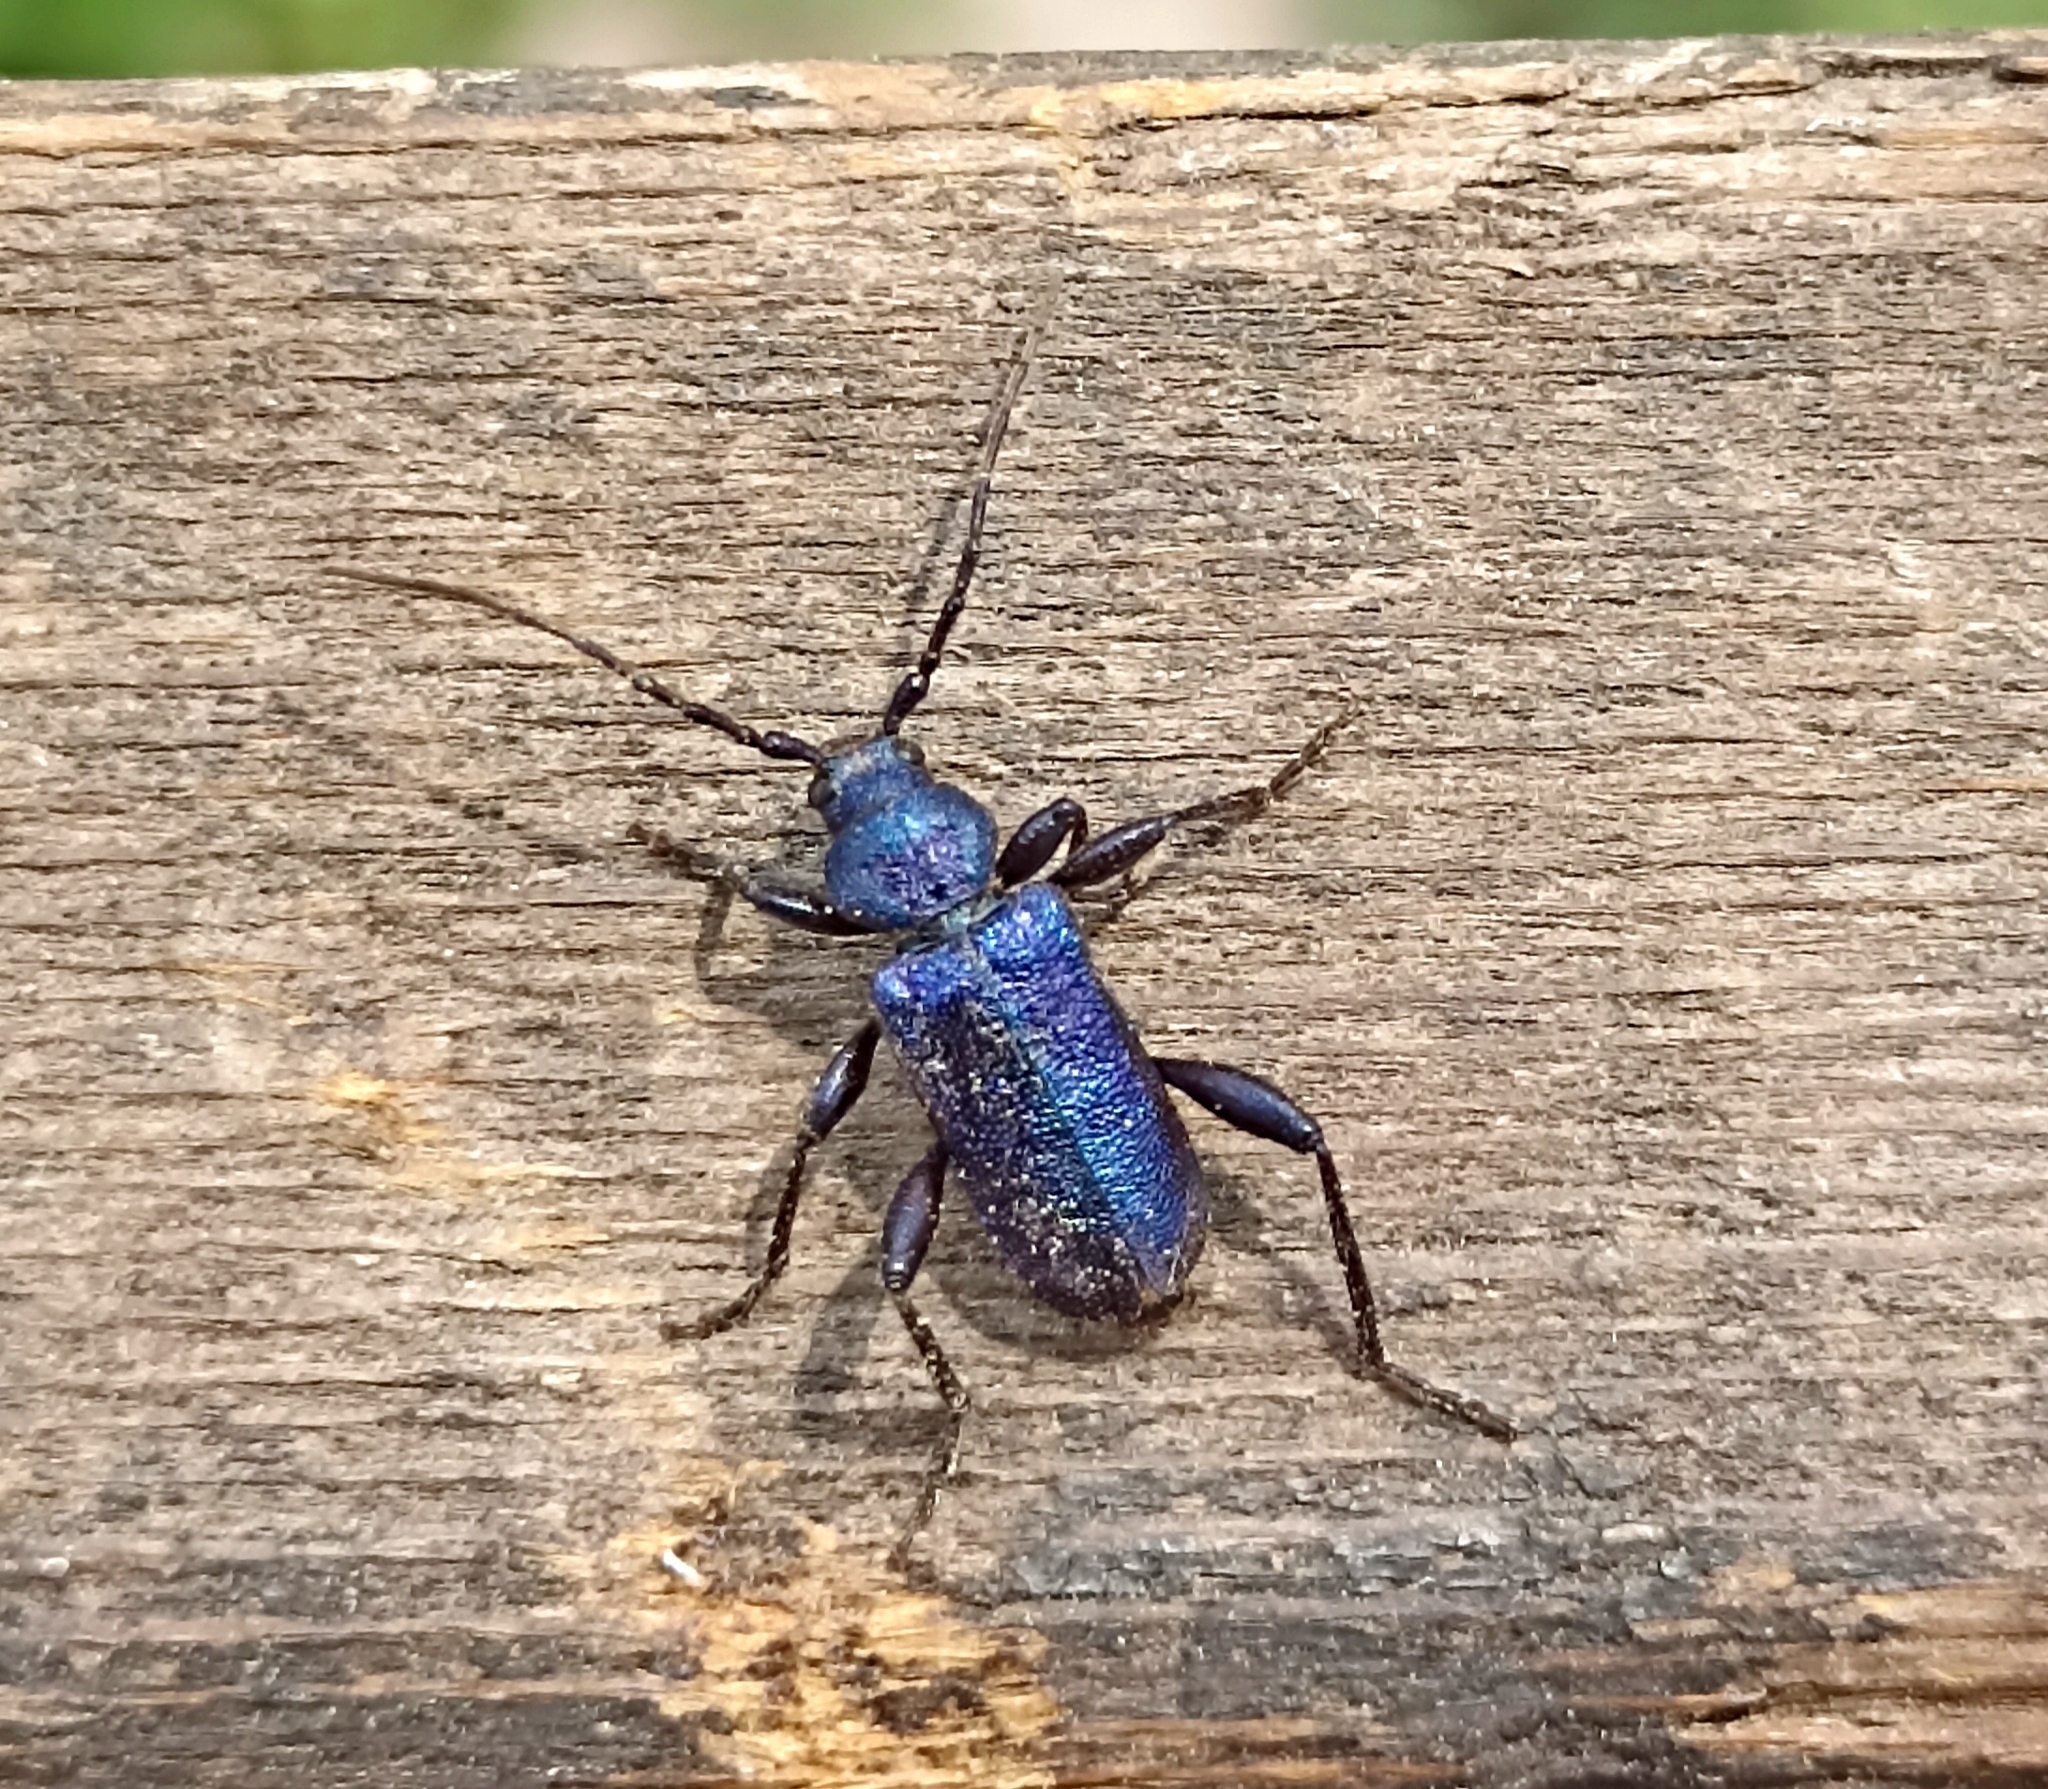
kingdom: Animalia
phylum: Arthropoda
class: Insecta
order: Coleoptera
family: Cerambycidae
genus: Callidium
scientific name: Callidium violaceum
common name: Violet tanbark beetle
